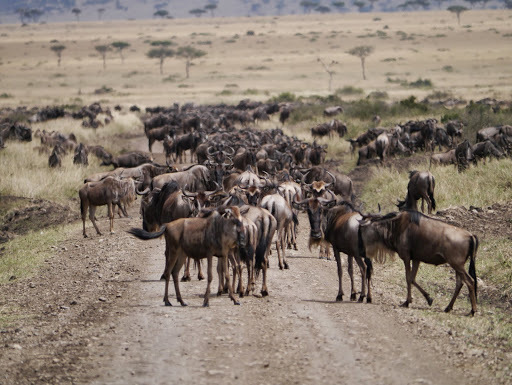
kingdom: Animalia
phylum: Chordata
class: Mammalia
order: Artiodactyla
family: Bovidae
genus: Connochaetes
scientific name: Connochaetes taurinus
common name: Blue wildebeest
